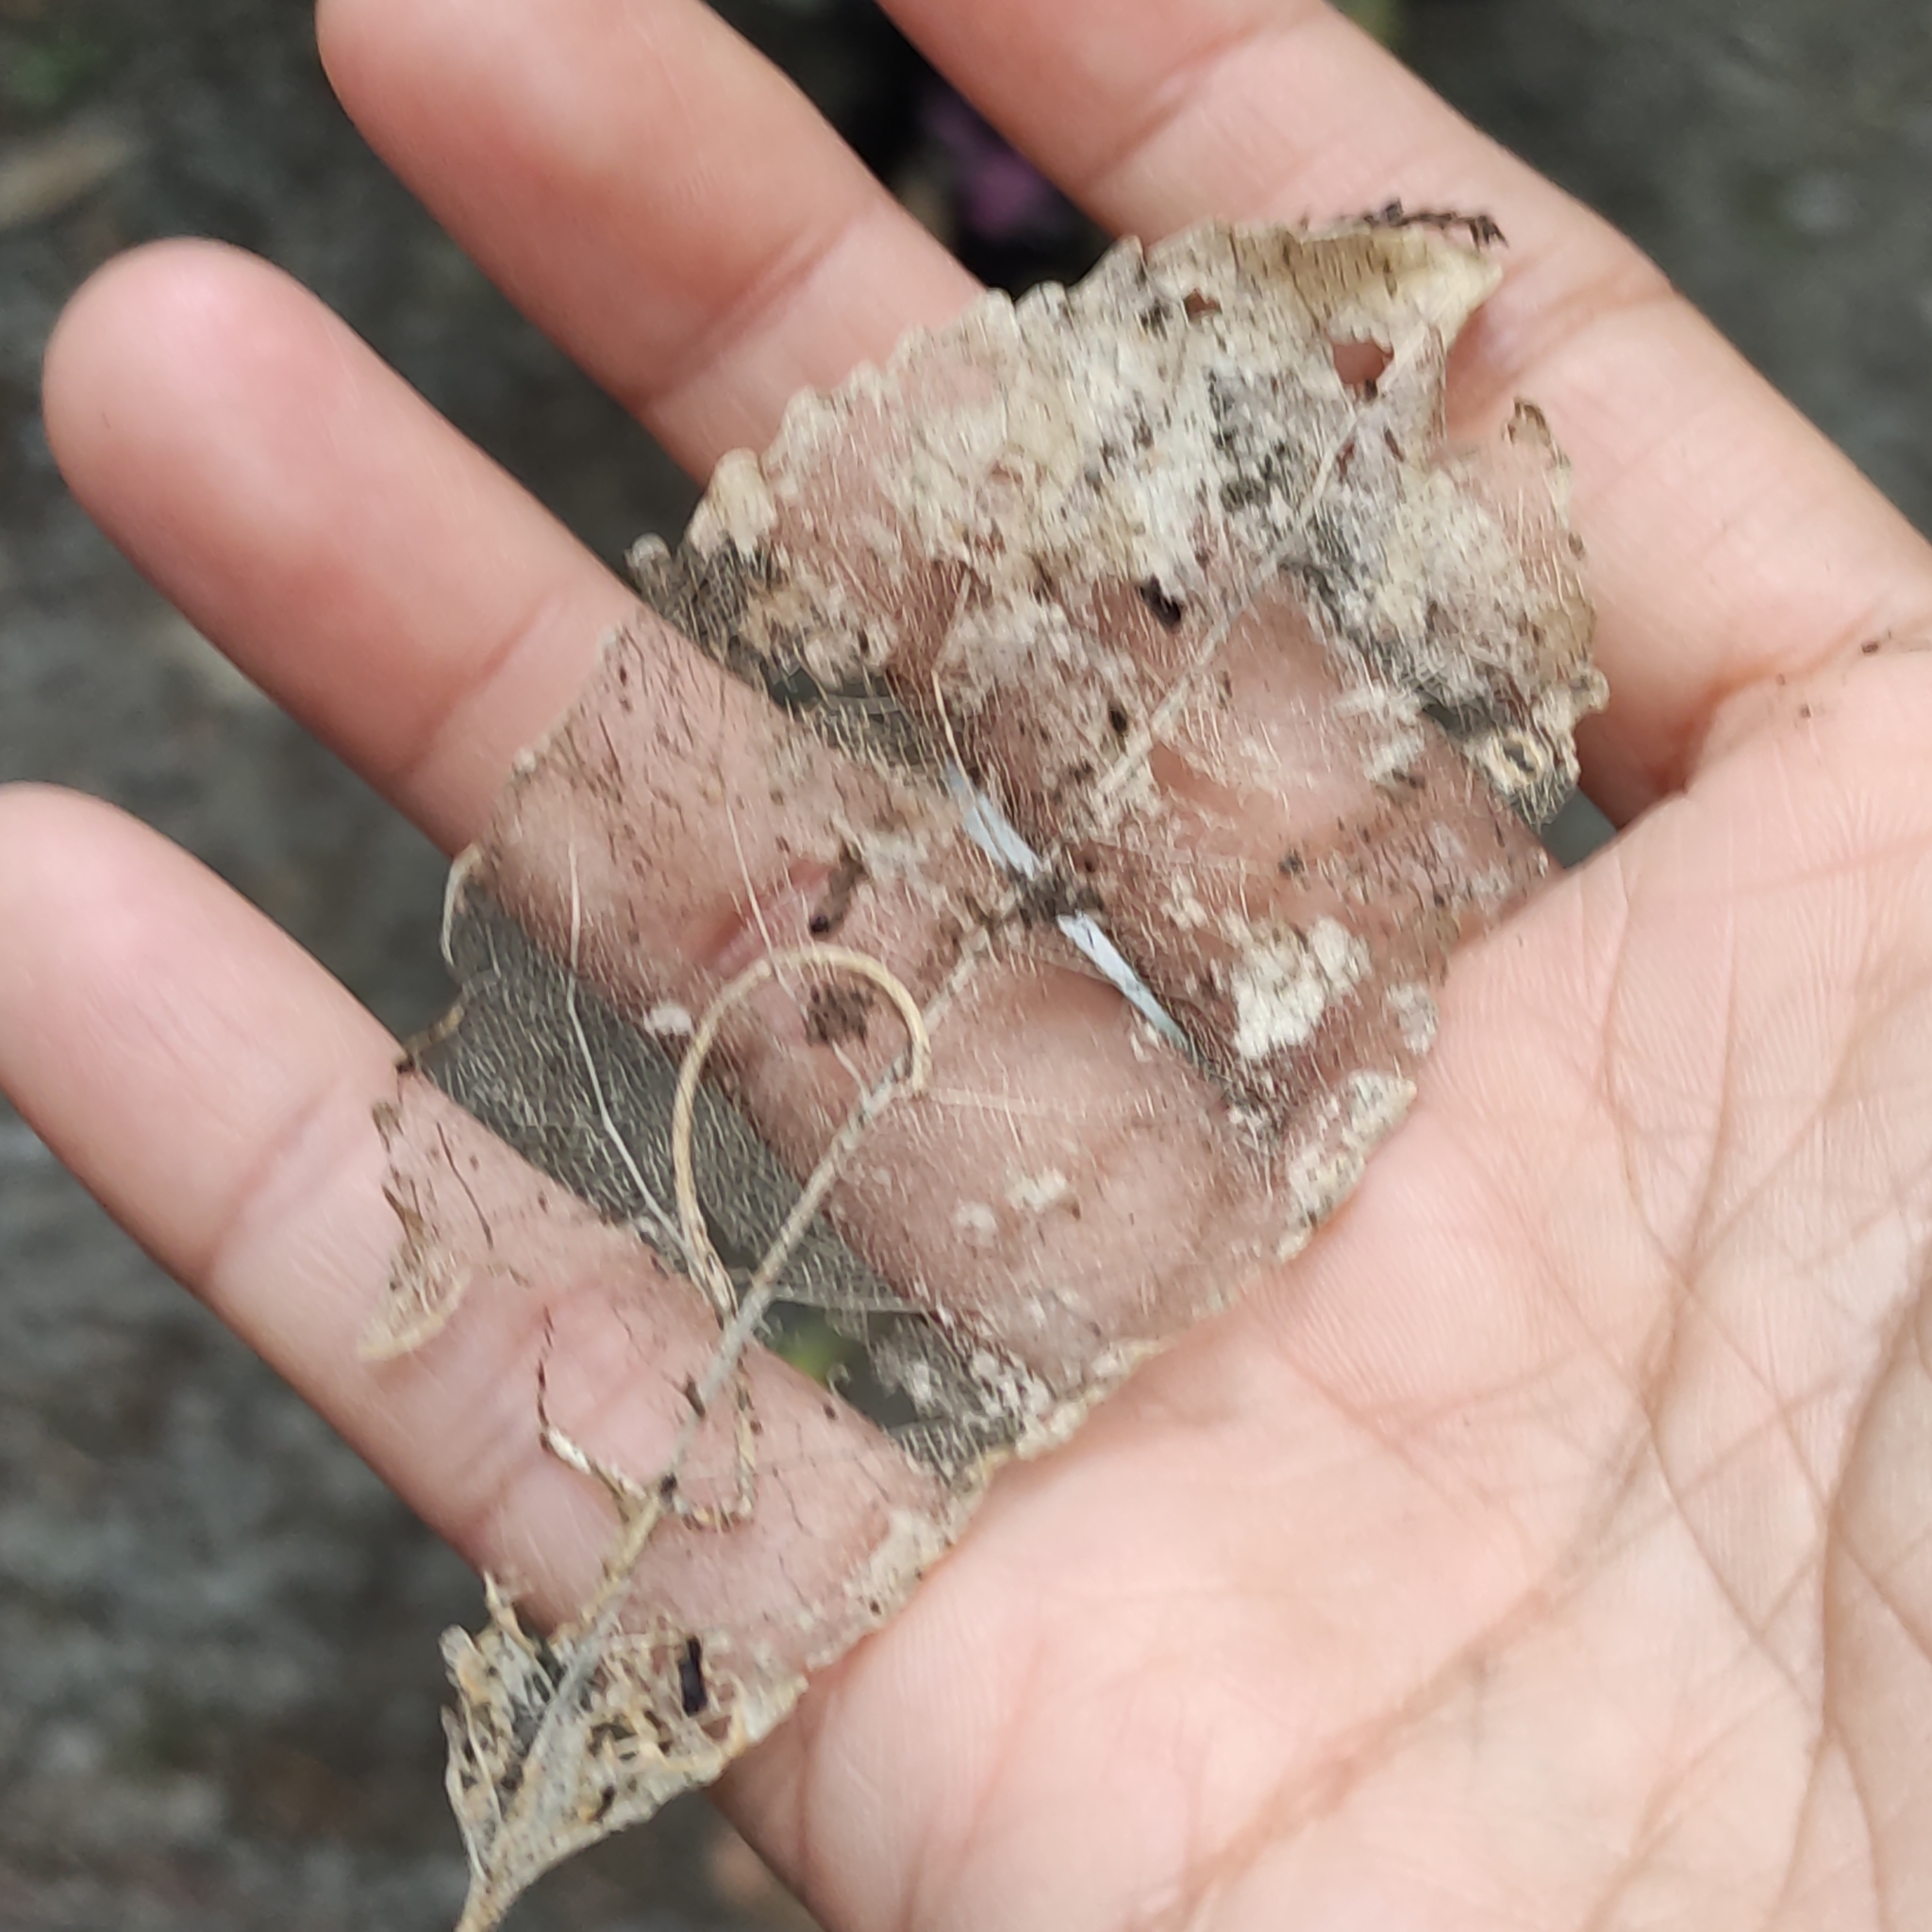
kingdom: Plantae
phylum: Tracheophyta
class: Magnoliopsida
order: Malpighiales
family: Violaceae
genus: Melicytus
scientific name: Melicytus ramiflorus
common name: Mahoe
